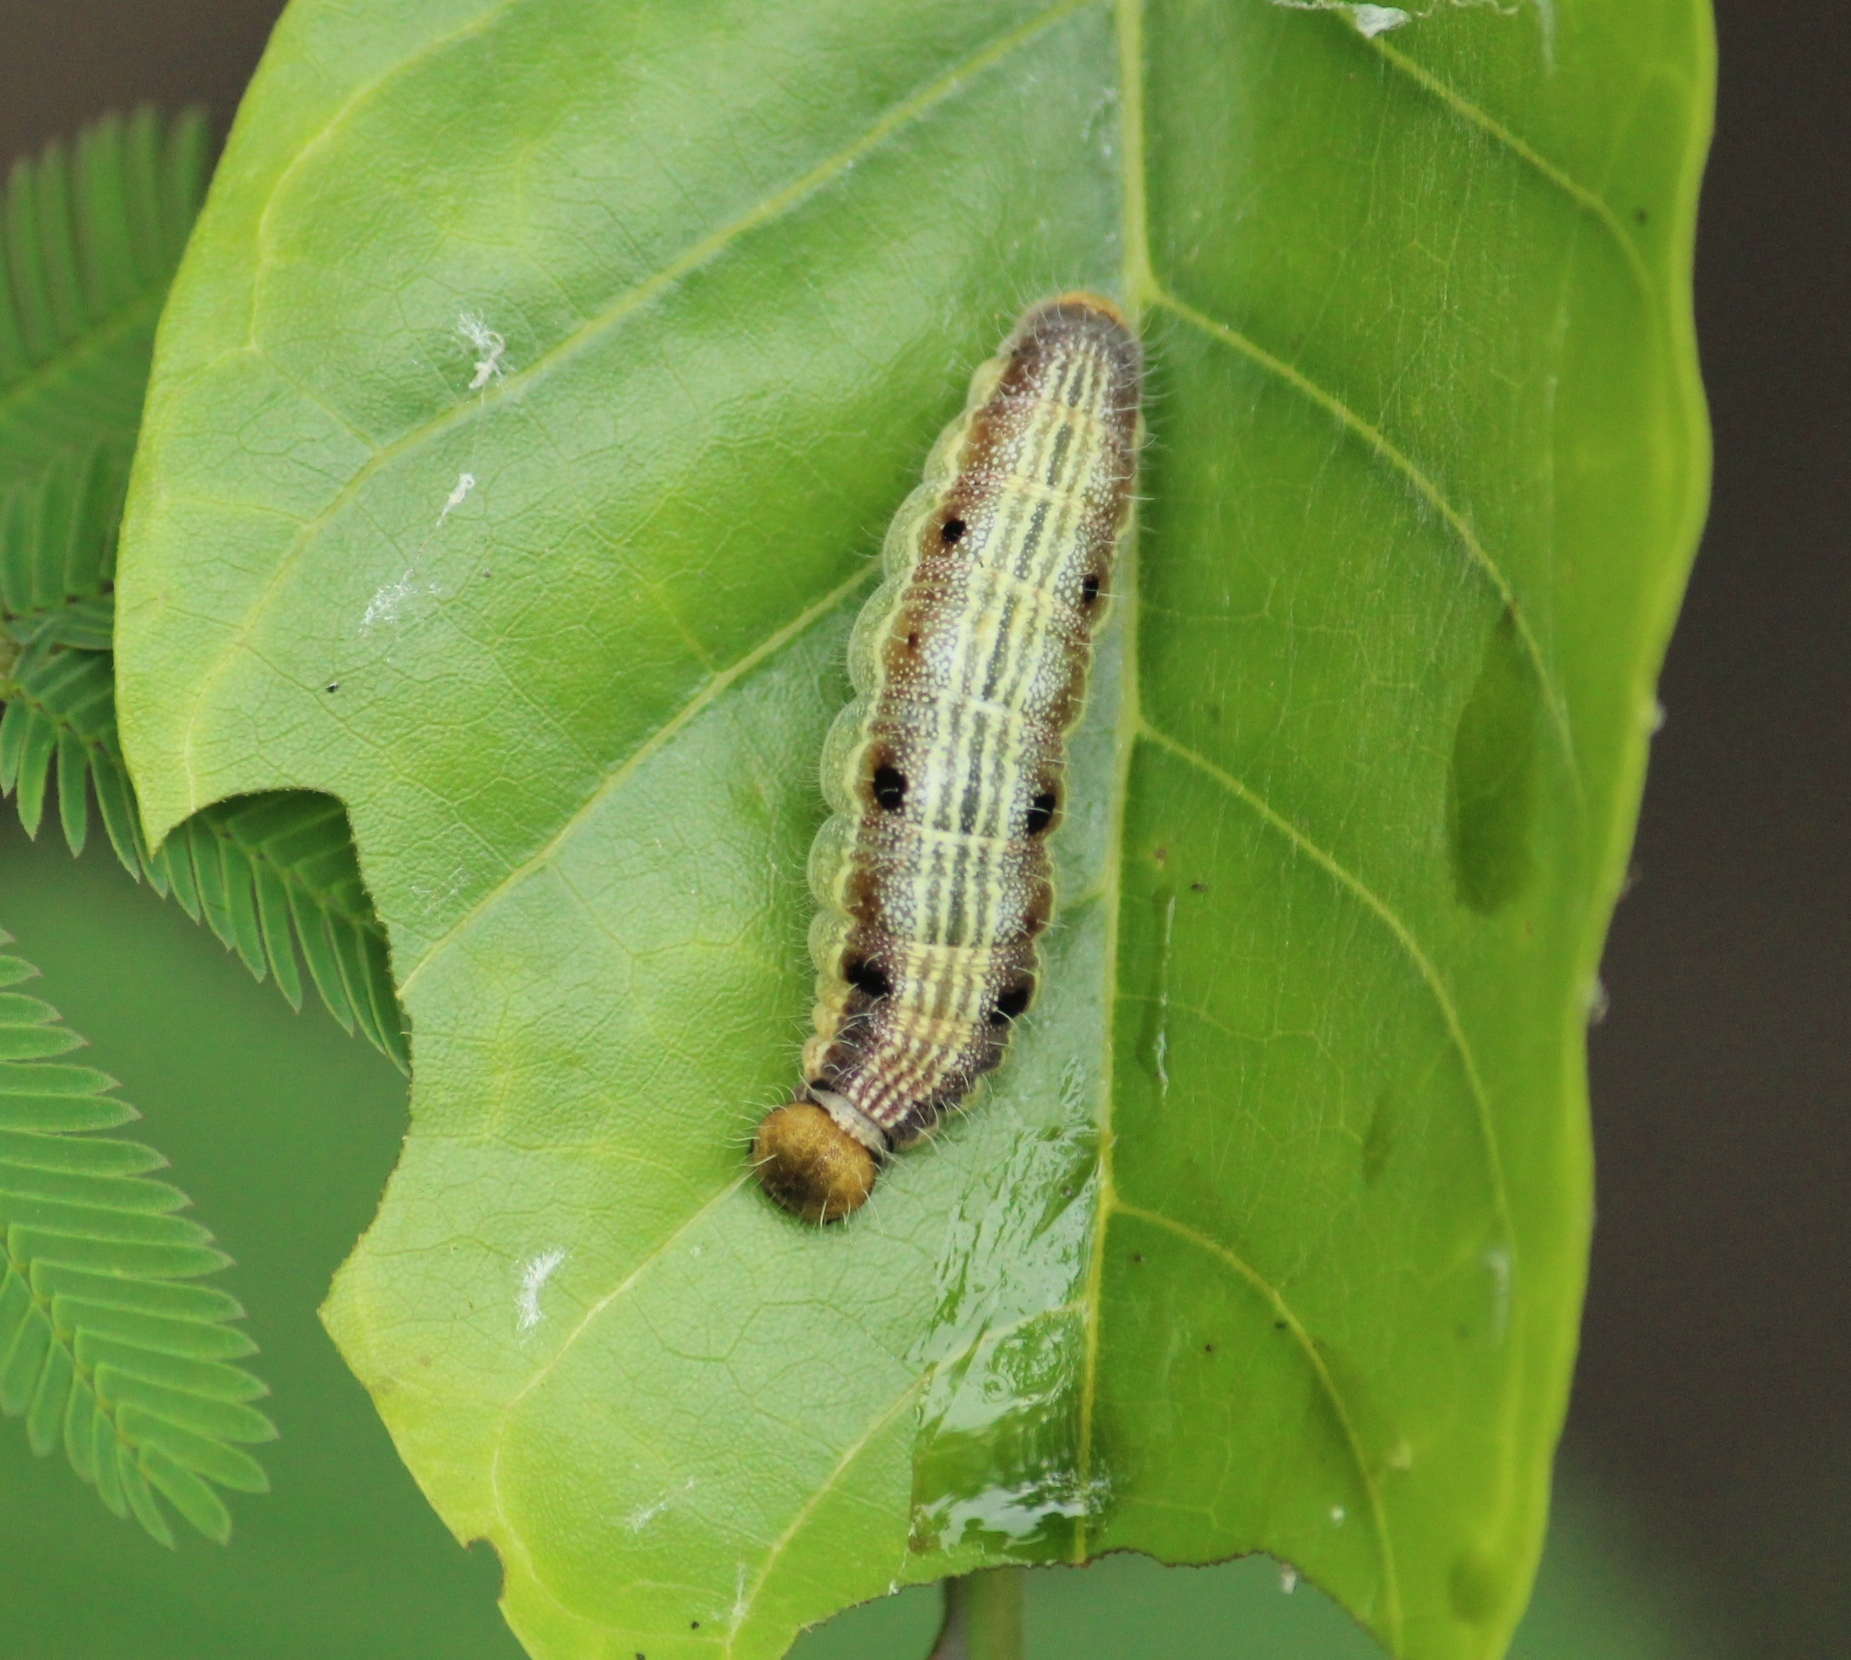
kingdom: Animalia
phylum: Arthropoda
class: Insecta
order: Lepidoptera
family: Hesperiidae
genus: Hasora
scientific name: Hasora chromus
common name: Common banded awl
